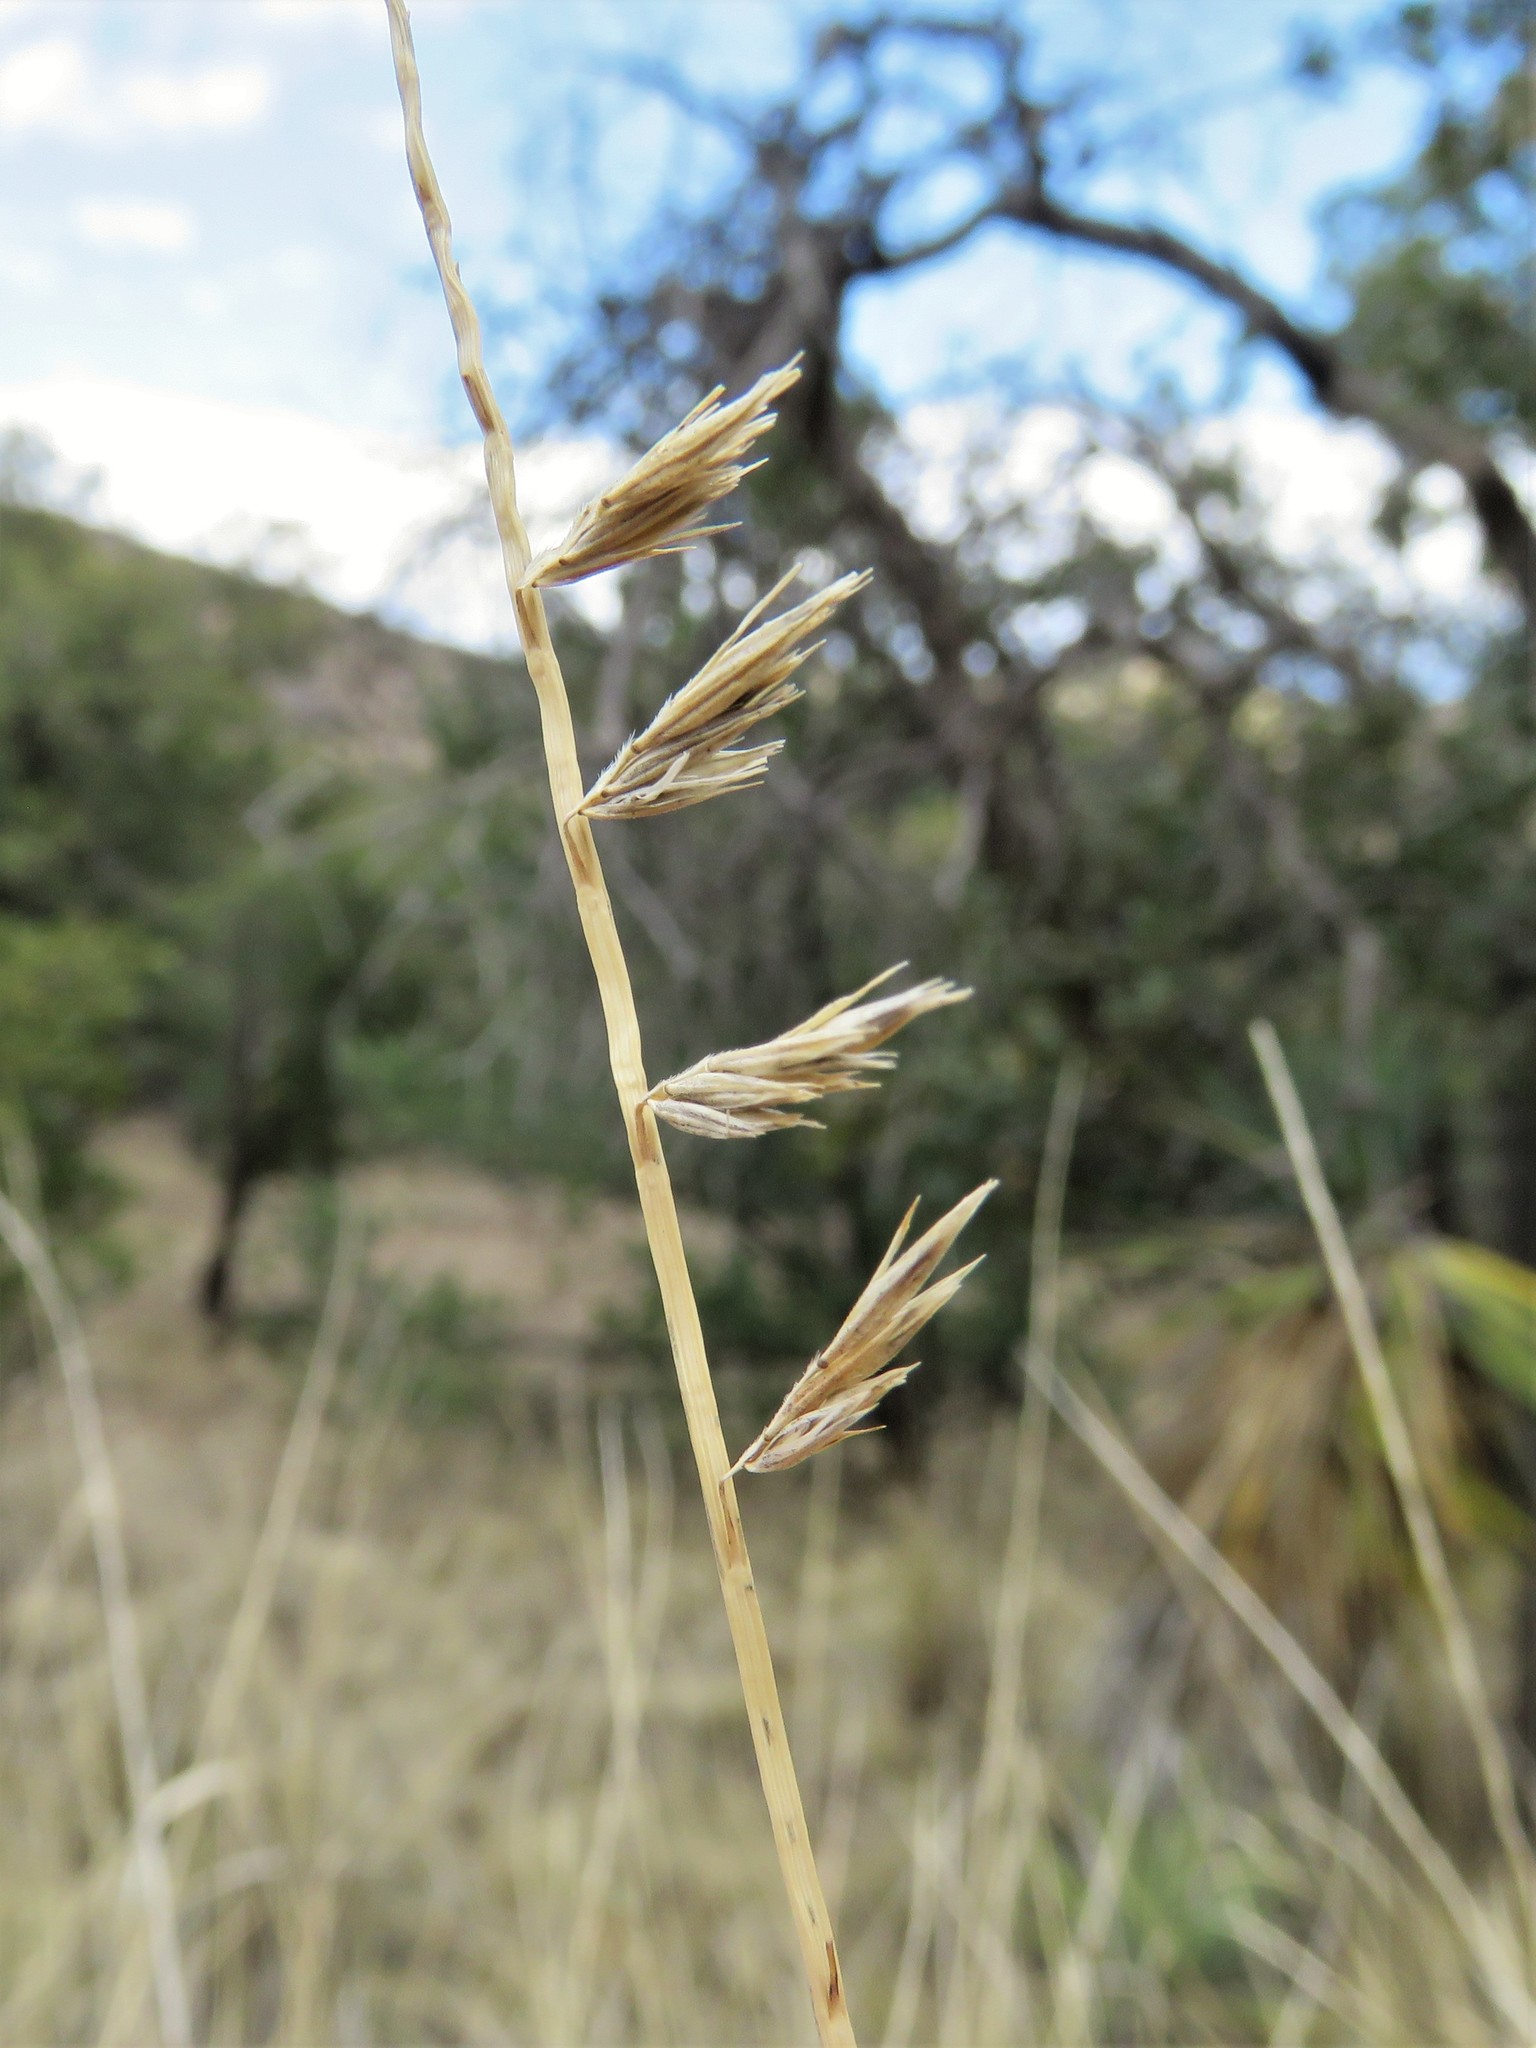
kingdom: Plantae
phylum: Tracheophyta
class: Liliopsida
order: Poales
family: Poaceae
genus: Bouteloua
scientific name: Bouteloua curtipendula
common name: Side-oats grama
